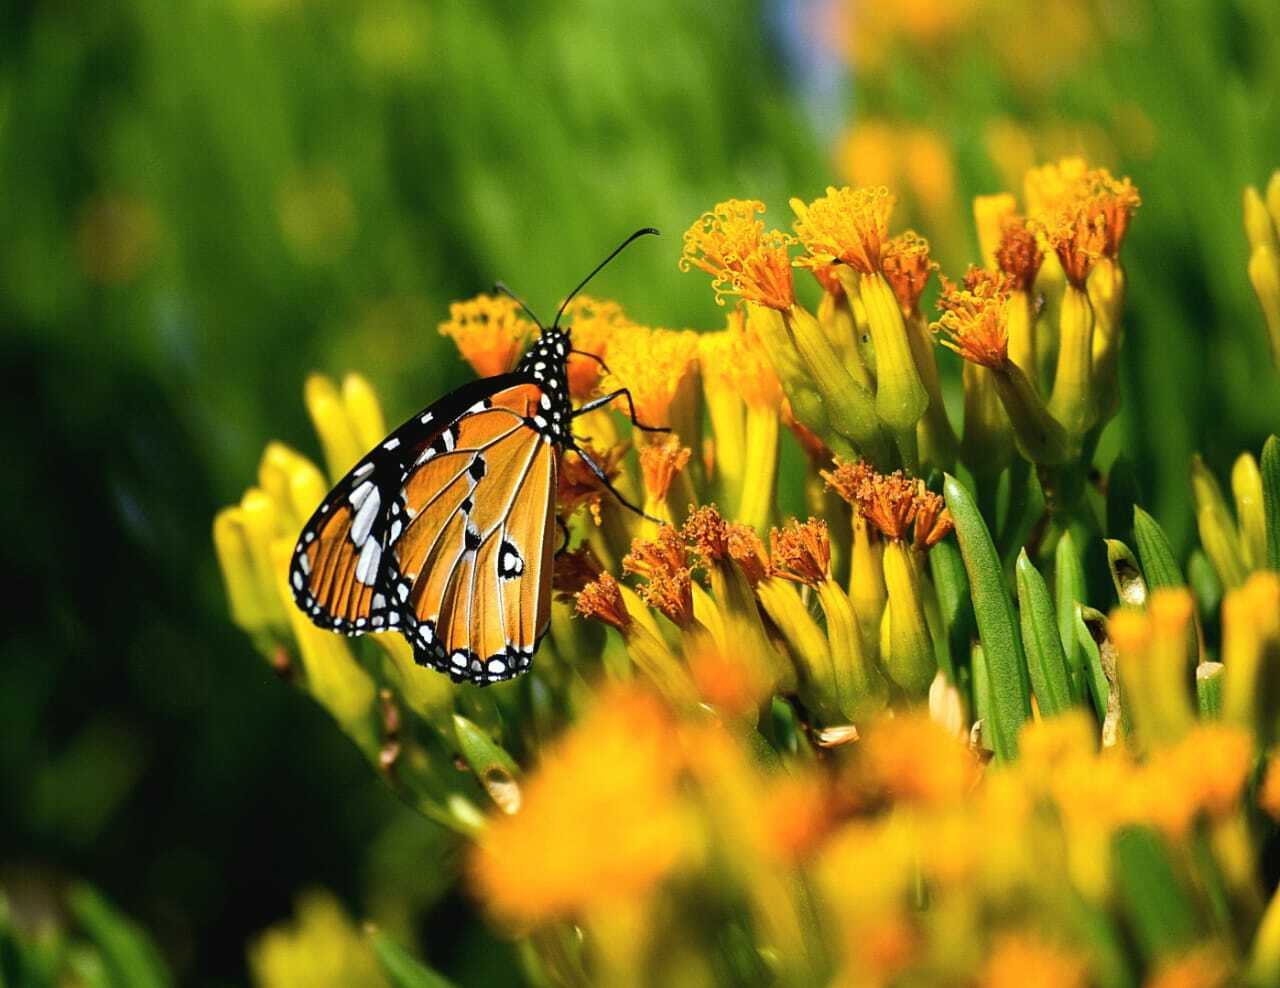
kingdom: Animalia
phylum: Arthropoda
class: Insecta
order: Lepidoptera
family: Nymphalidae
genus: Danaus
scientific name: Danaus chrysippus
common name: Plain tiger
